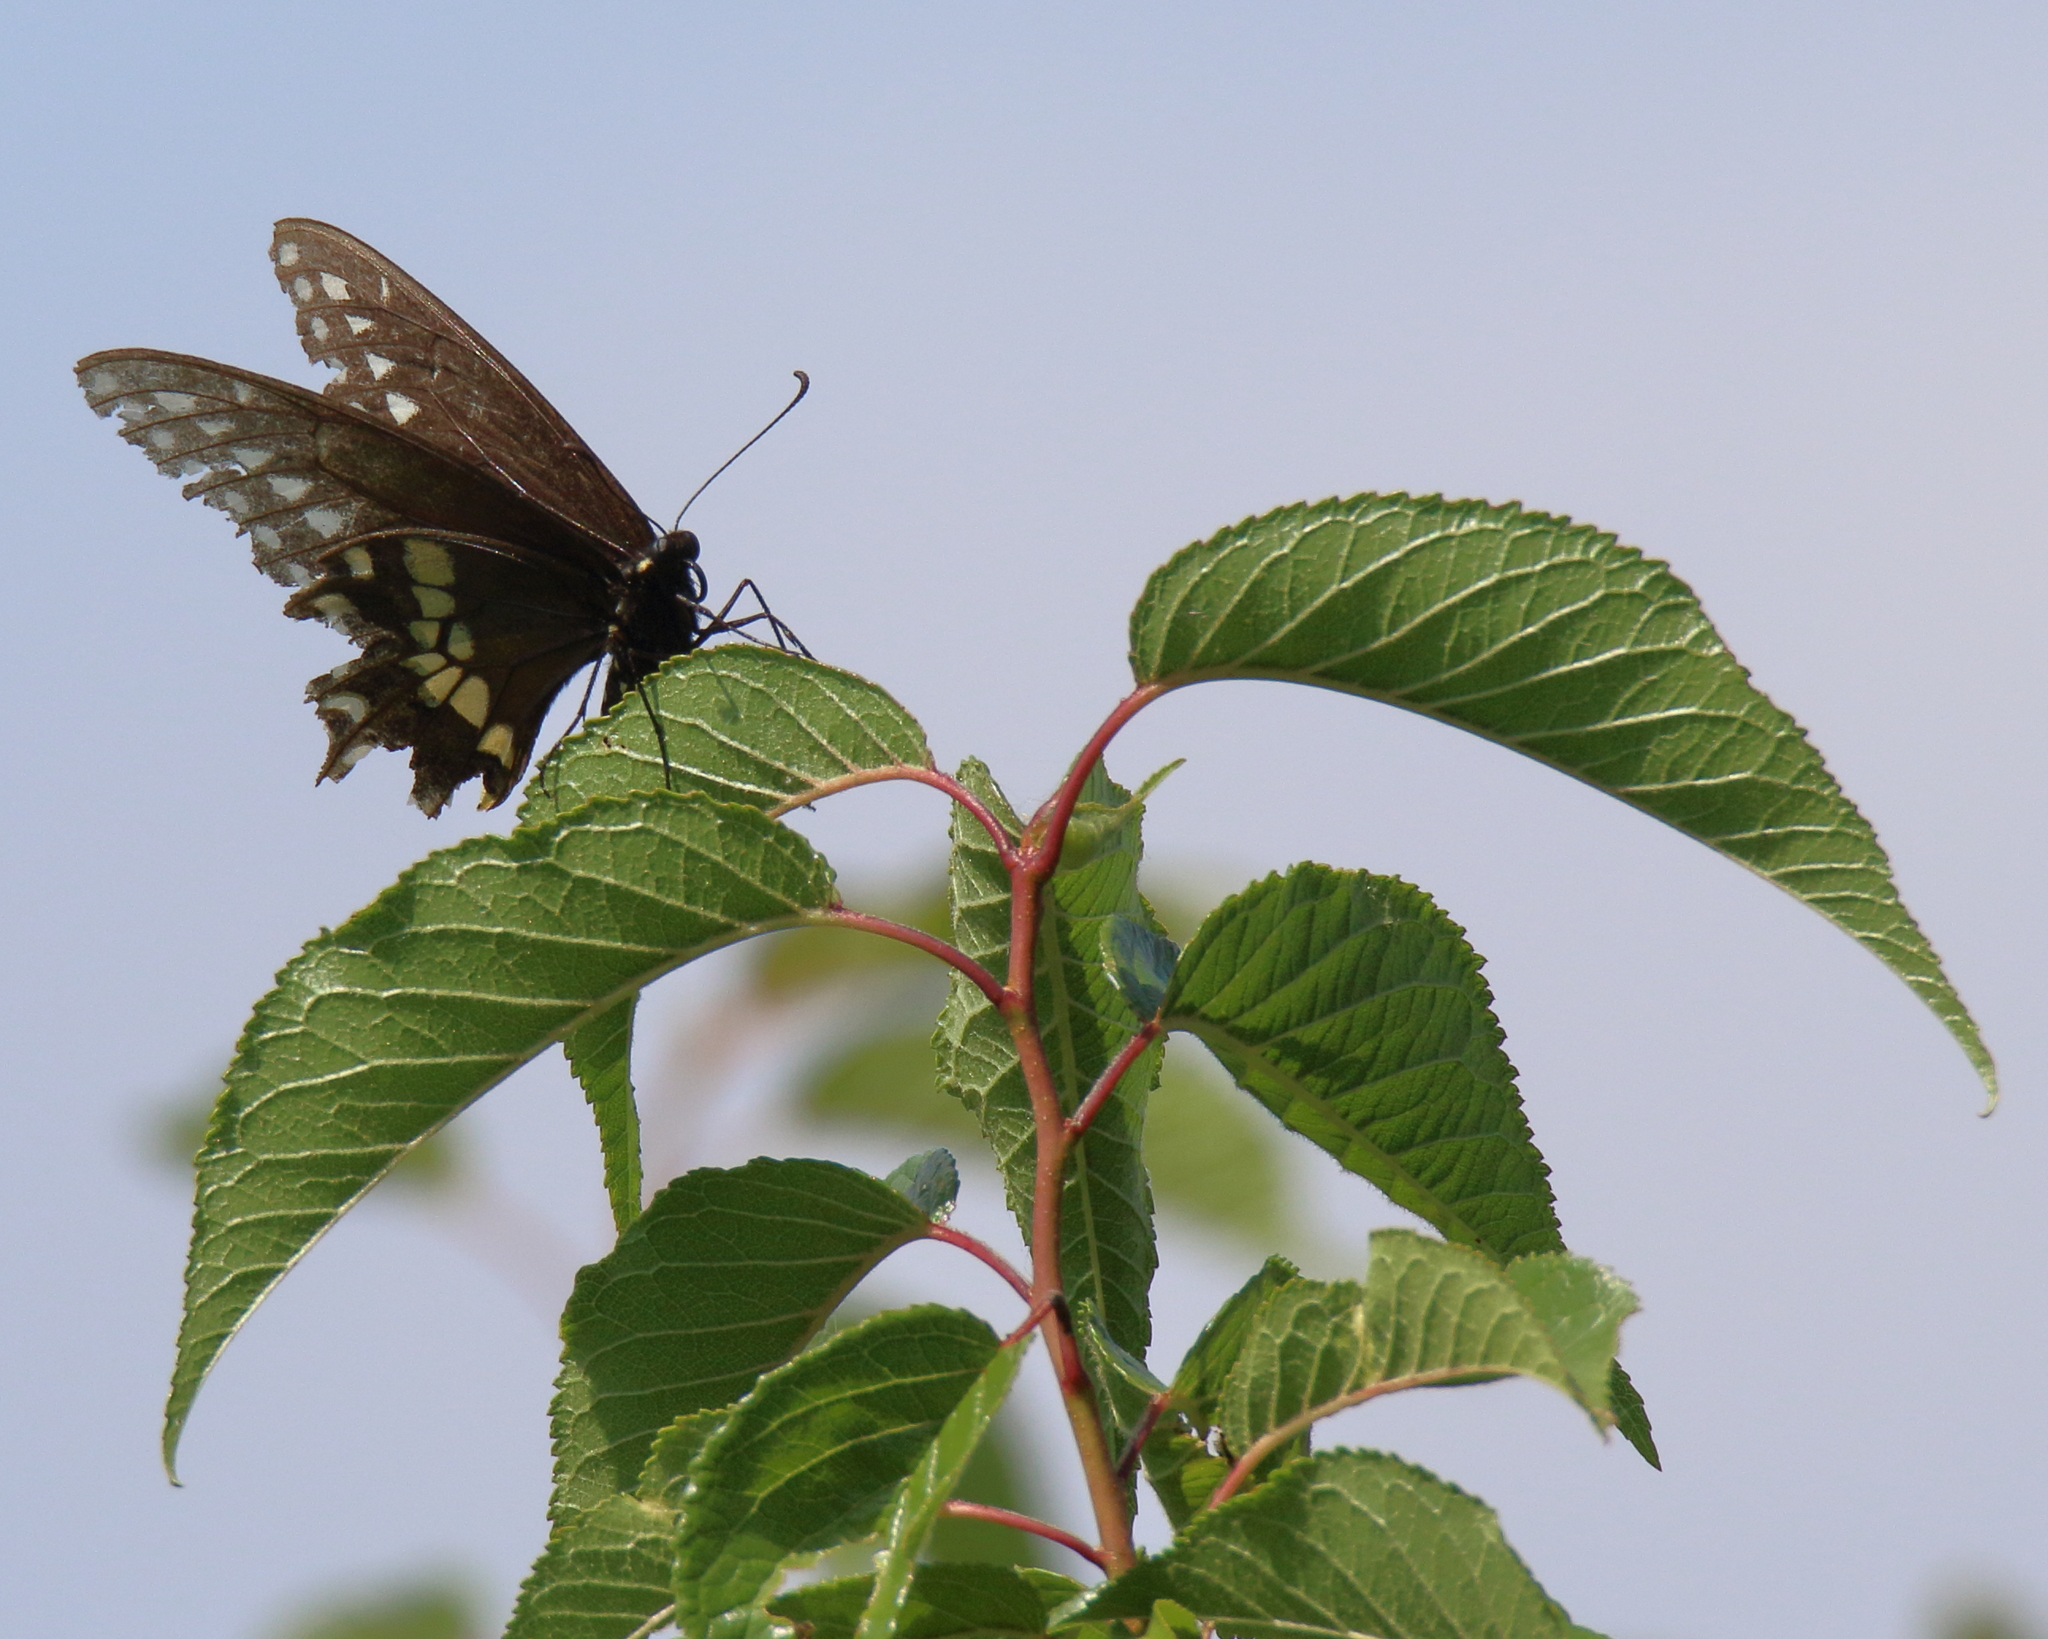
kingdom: Animalia
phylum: Arthropoda
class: Insecta
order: Lepidoptera
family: Papilionidae
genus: Papilio
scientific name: Papilio polyxenes
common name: Black swallowtail
